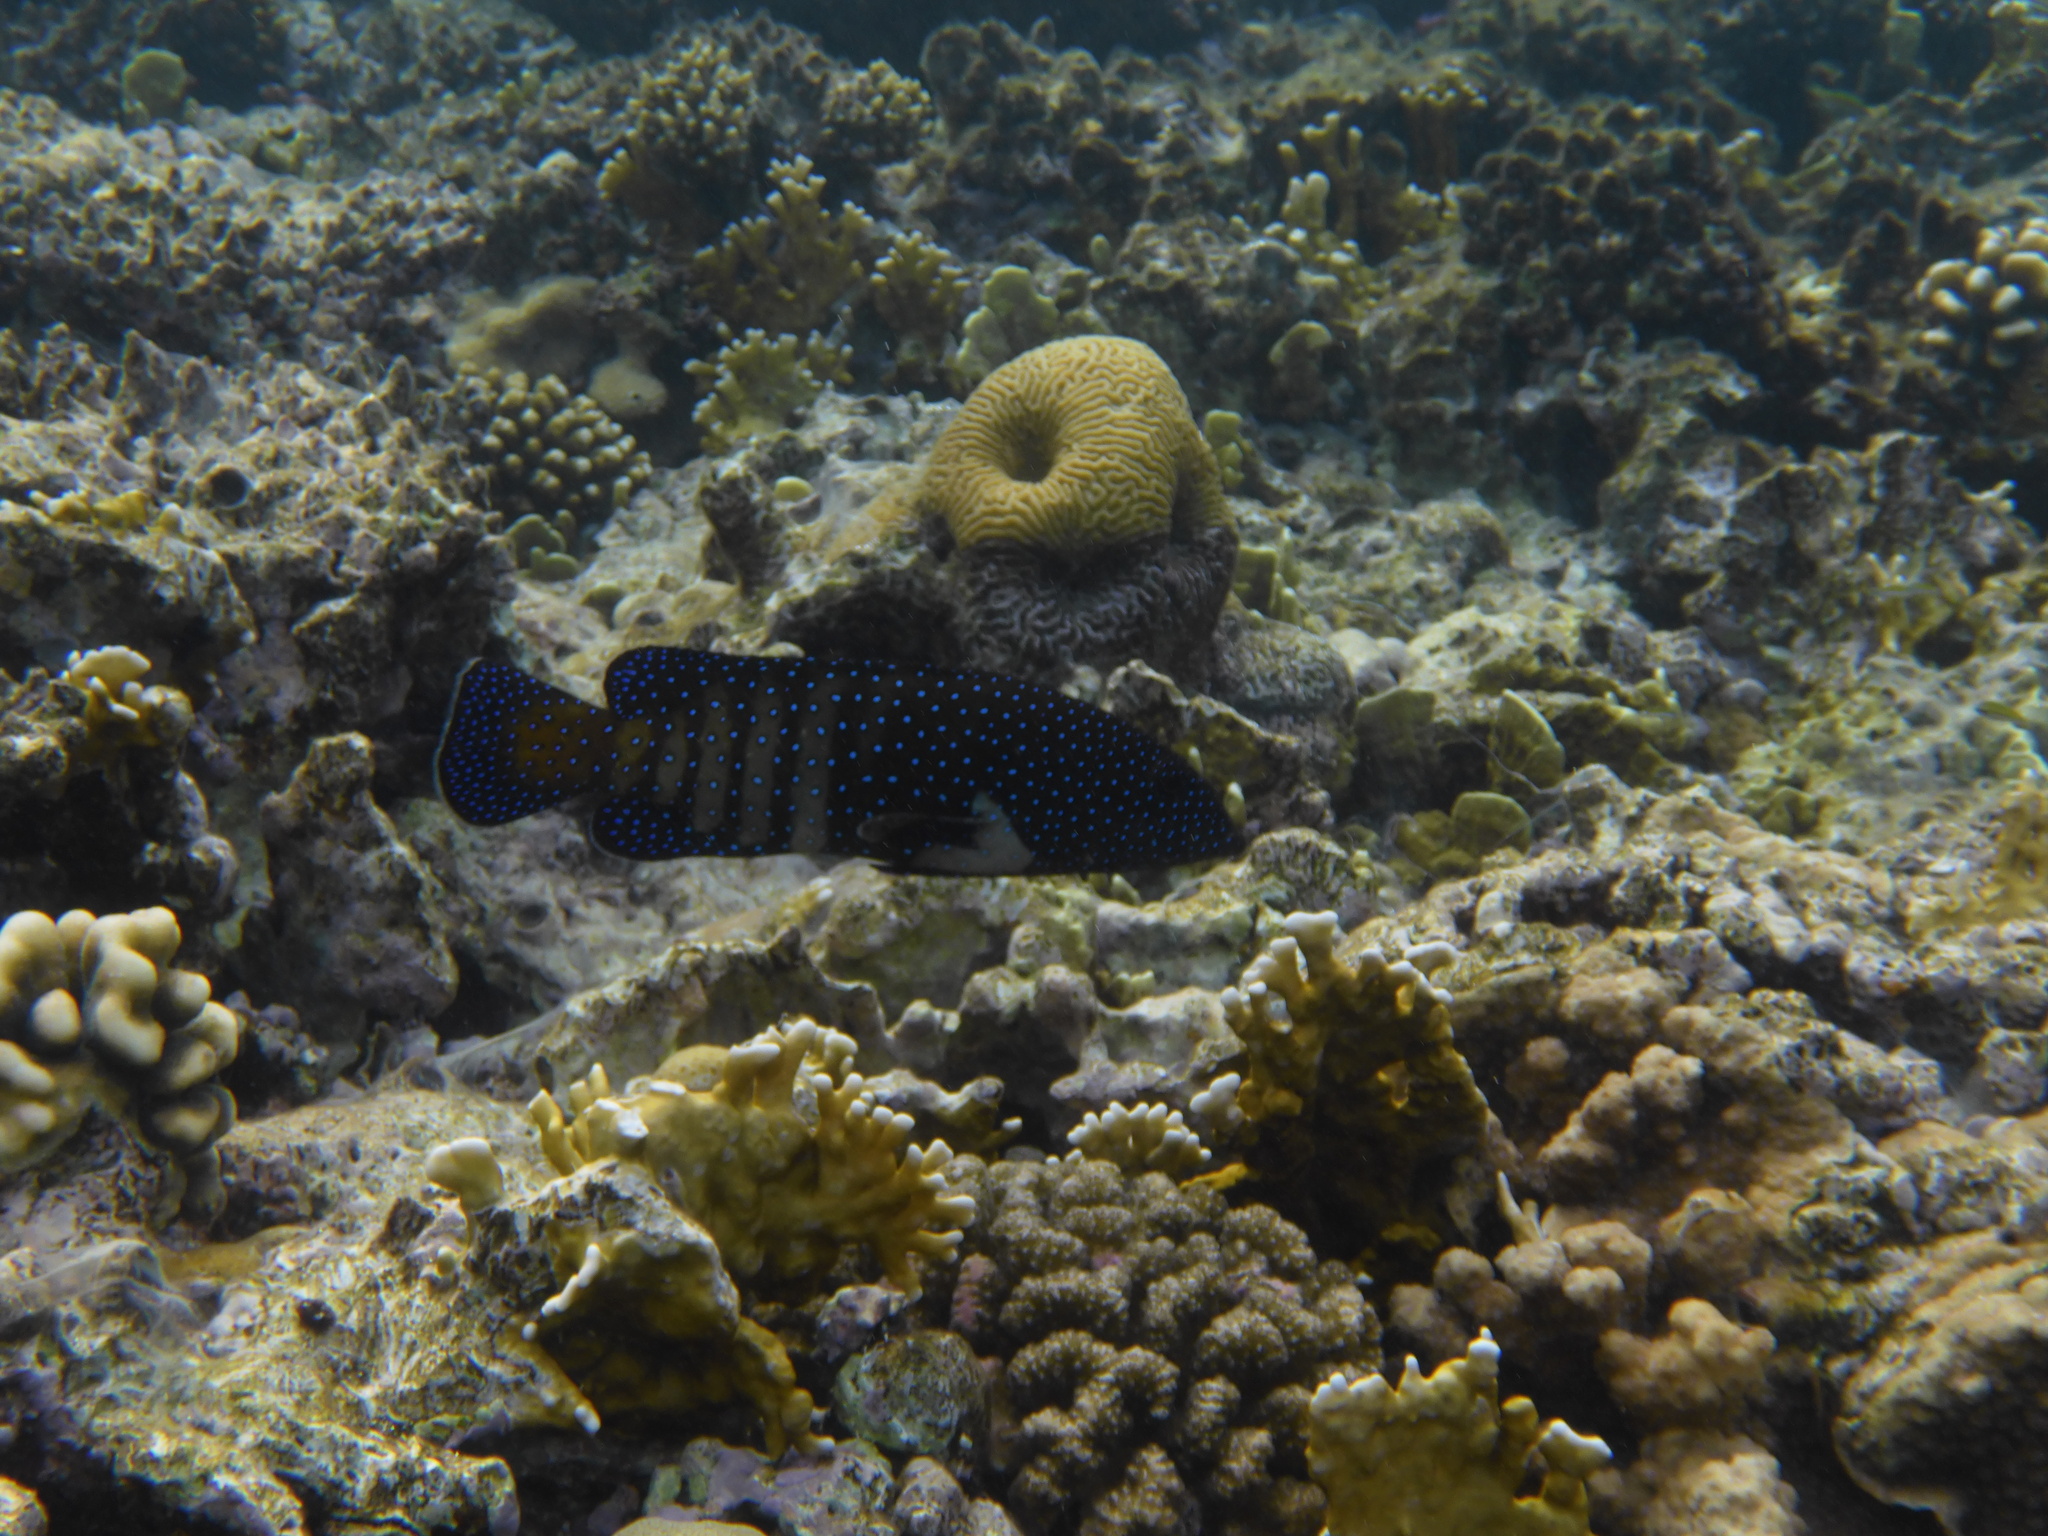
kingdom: Animalia
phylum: Chordata
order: Perciformes
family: Serranidae
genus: Cephalopholis
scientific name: Cephalopholis argus
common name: Peacock grouper
